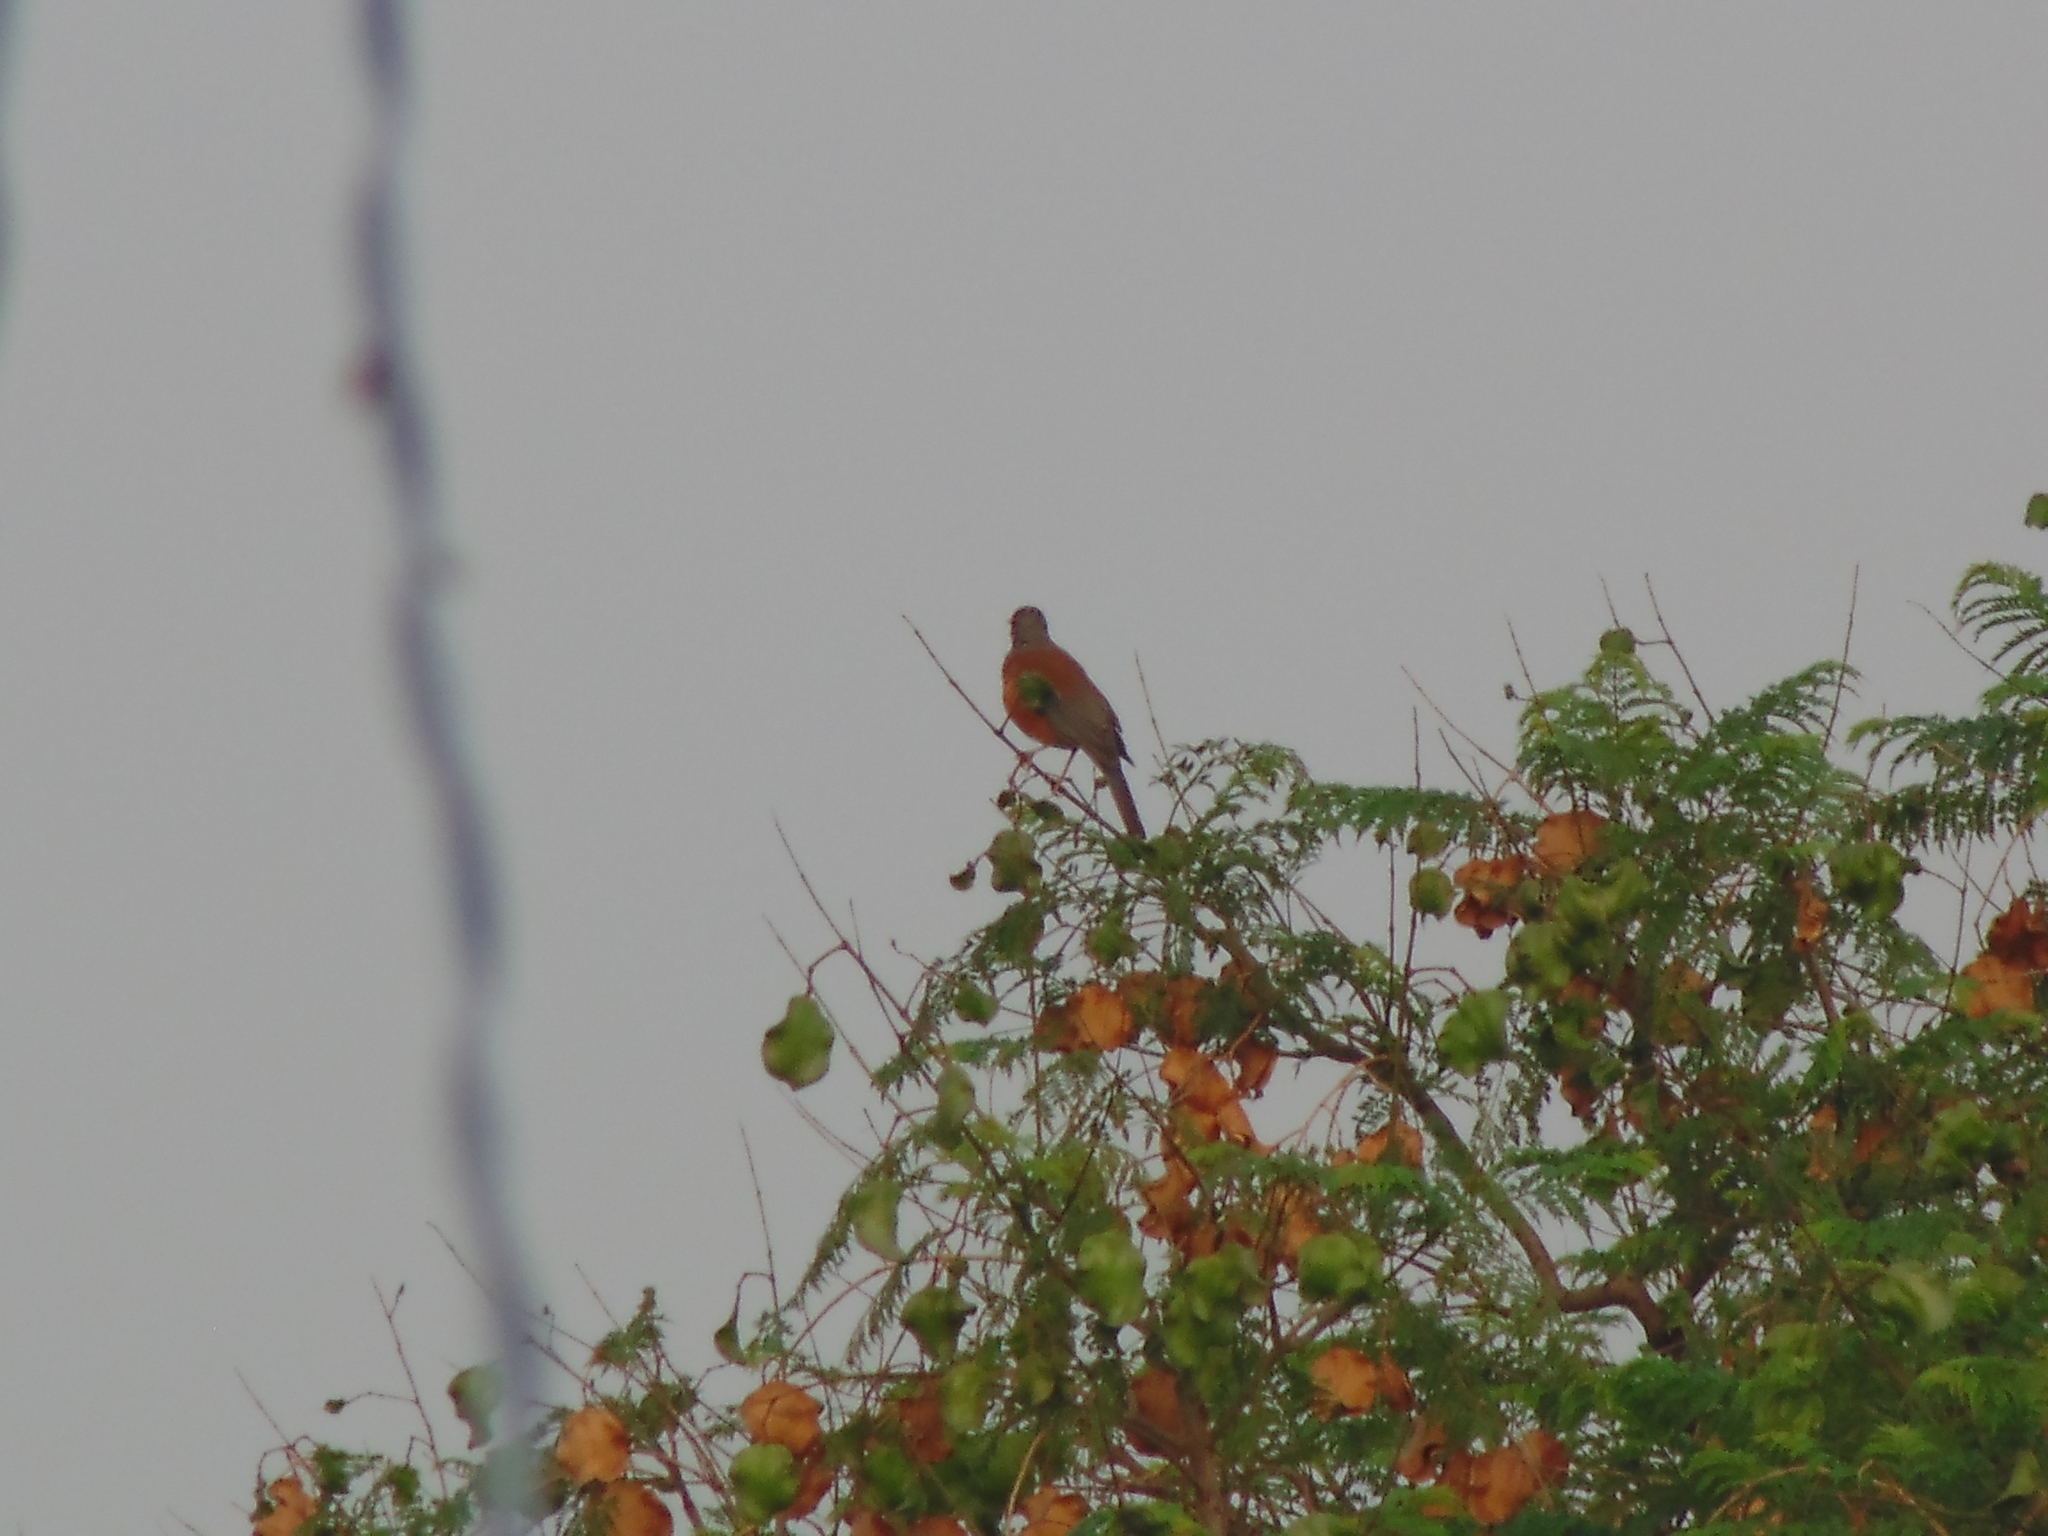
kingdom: Animalia
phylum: Chordata
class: Aves
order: Passeriformes
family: Turdidae
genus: Turdus
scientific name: Turdus rufopalliatus
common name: Rufous-backed robin
